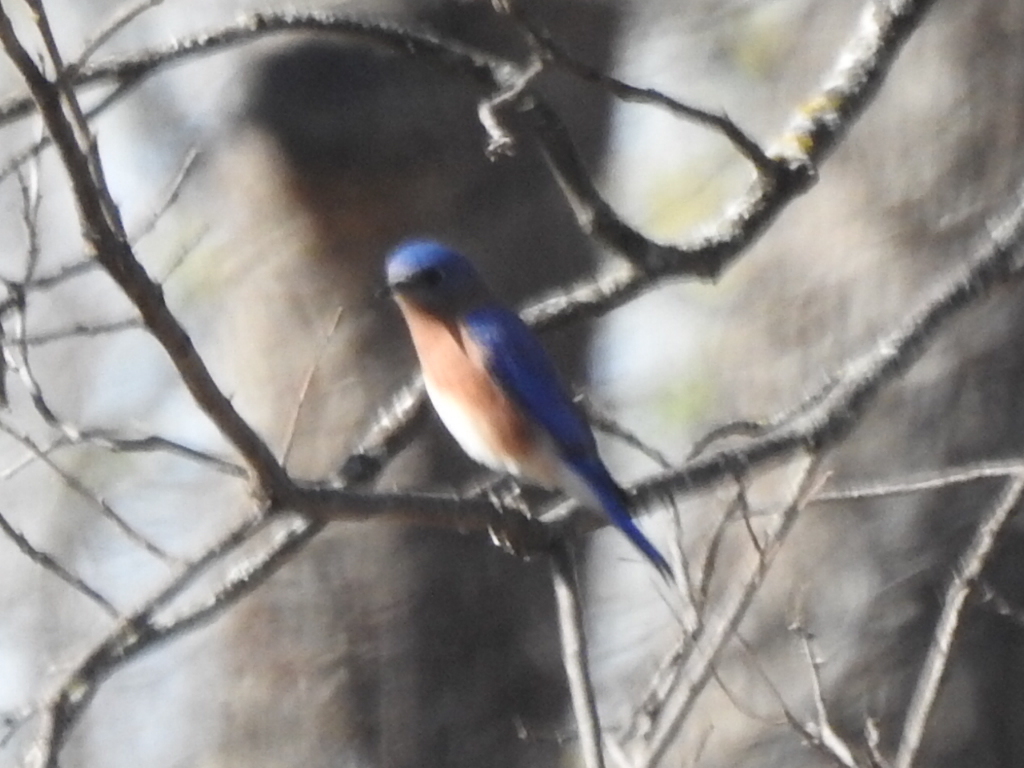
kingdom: Animalia
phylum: Chordata
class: Aves
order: Passeriformes
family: Turdidae
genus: Sialia
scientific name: Sialia sialis
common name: Eastern bluebird
